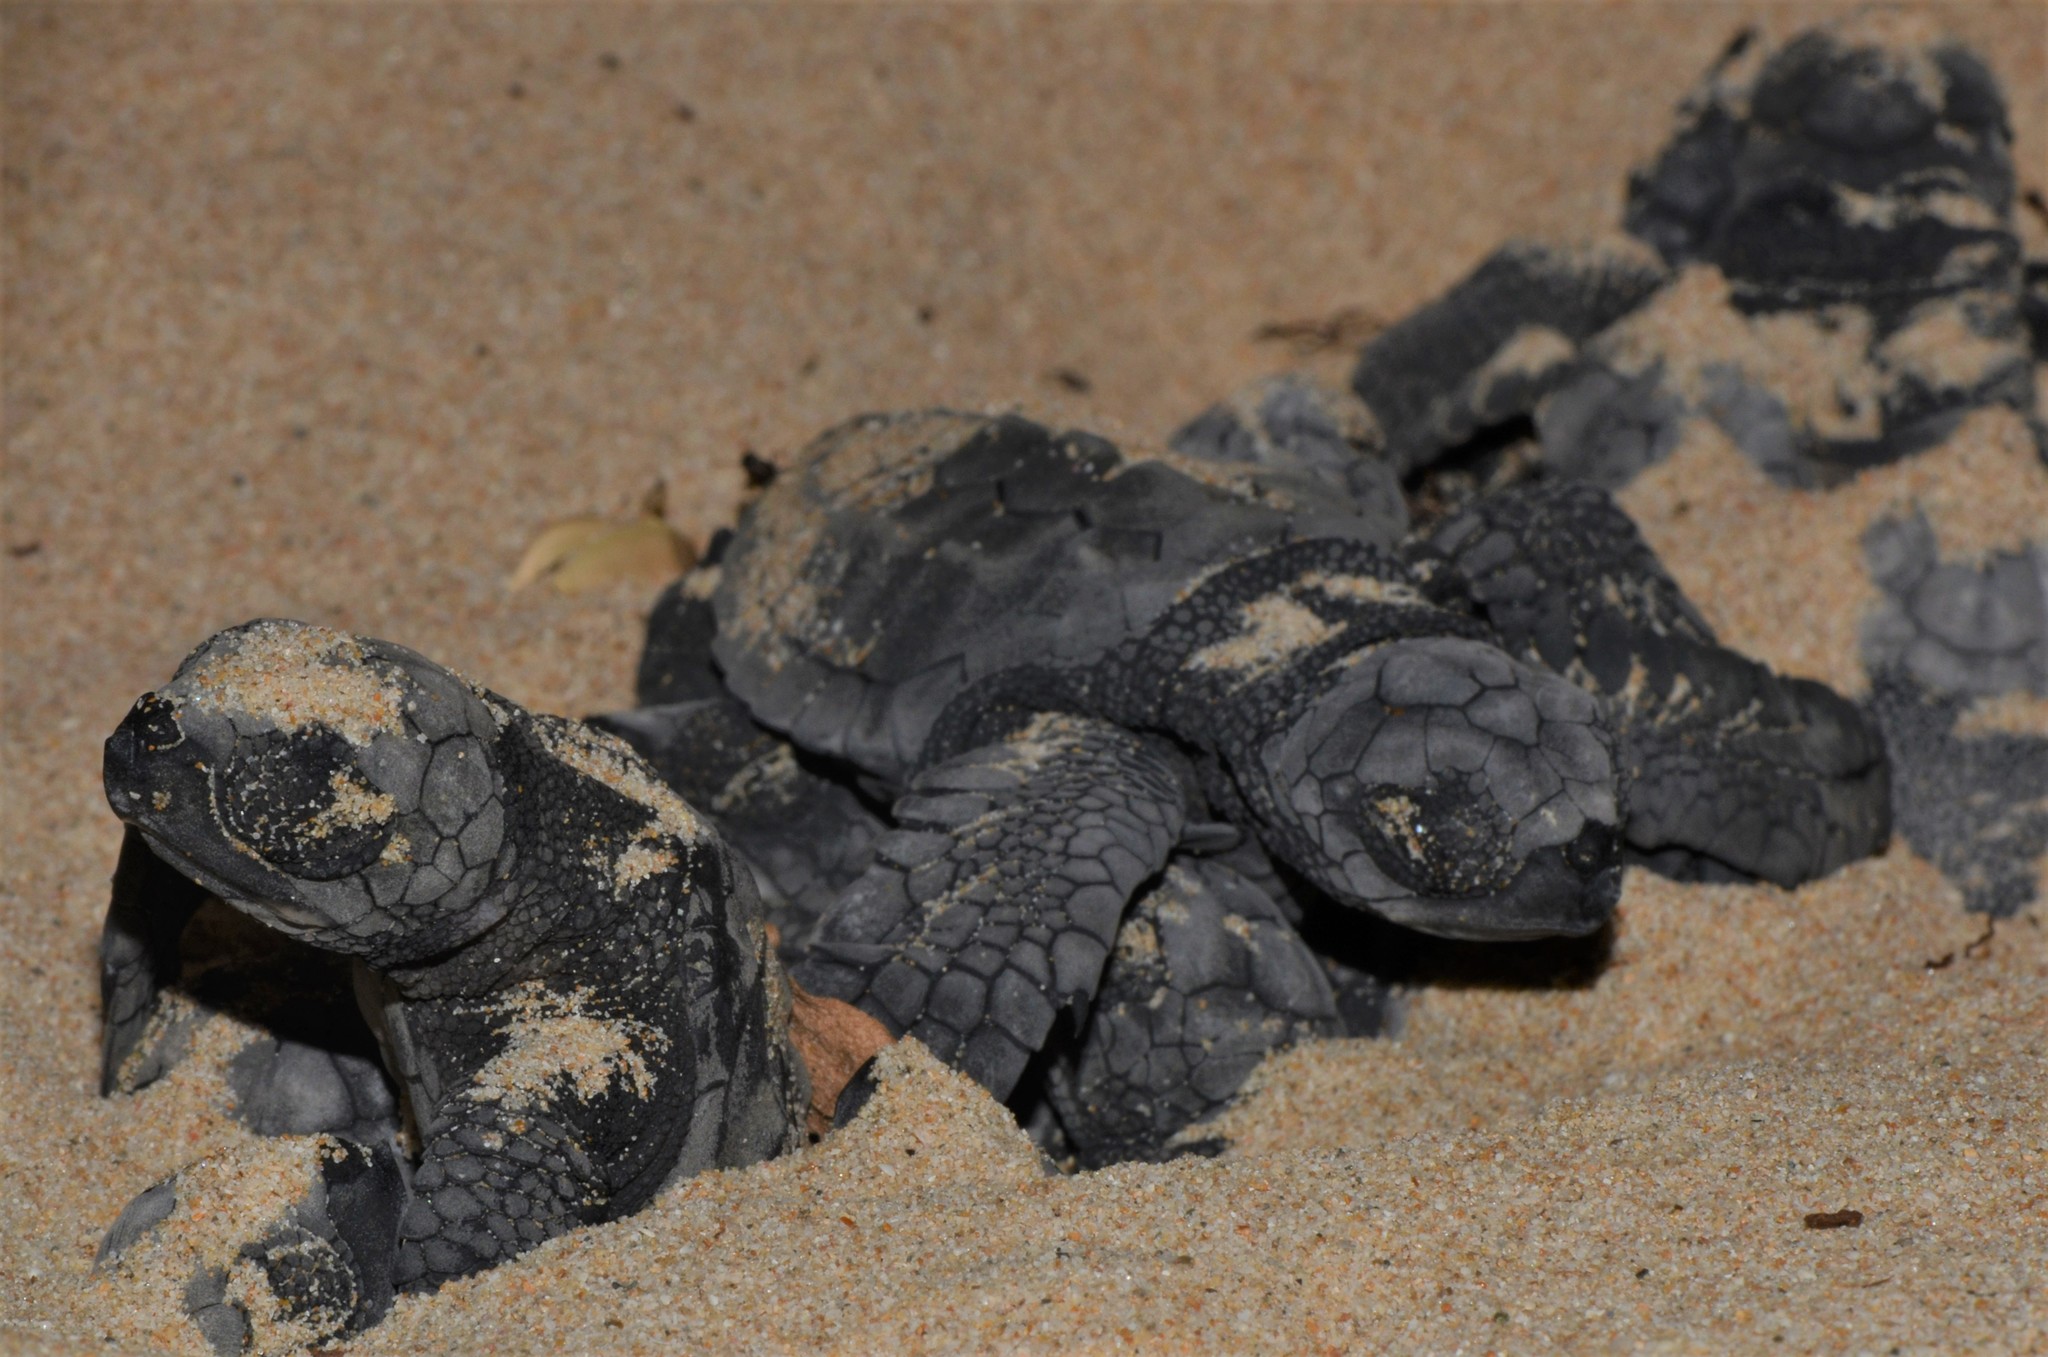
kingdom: Animalia
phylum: Chordata
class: Testudines
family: Cheloniidae
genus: Lepidochelys
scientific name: Lepidochelys olivacea
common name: Olive ridley
